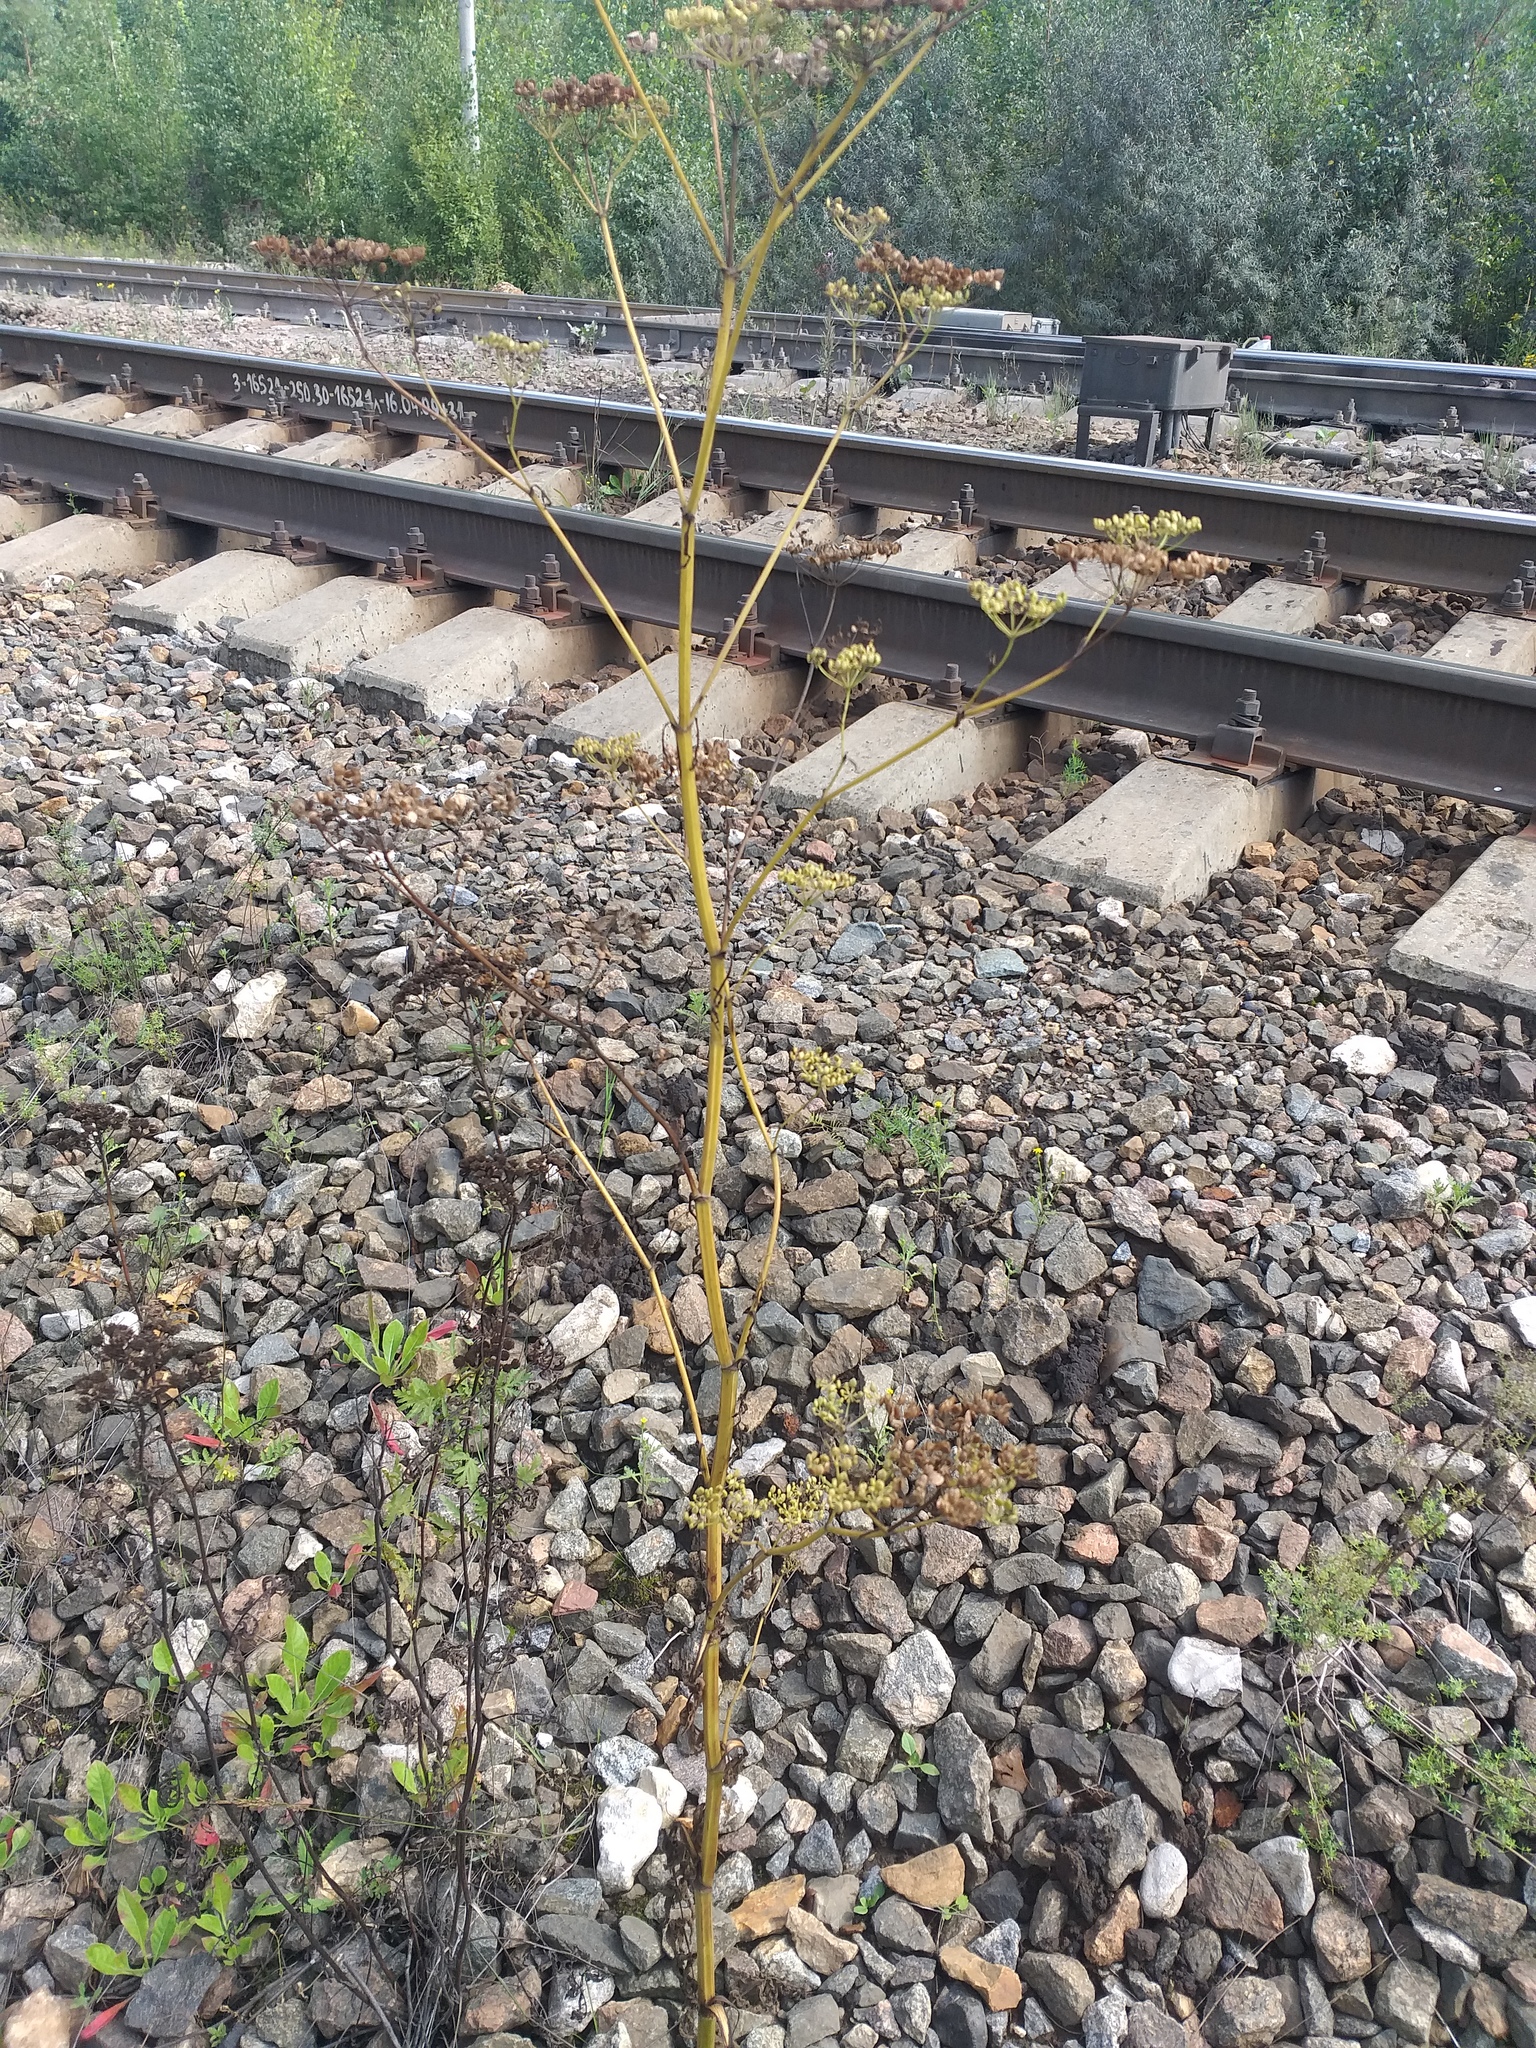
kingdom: Plantae
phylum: Tracheophyta
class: Magnoliopsida
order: Apiales
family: Apiaceae
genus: Pastinaca
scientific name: Pastinaca sativa
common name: Wild parsnip
